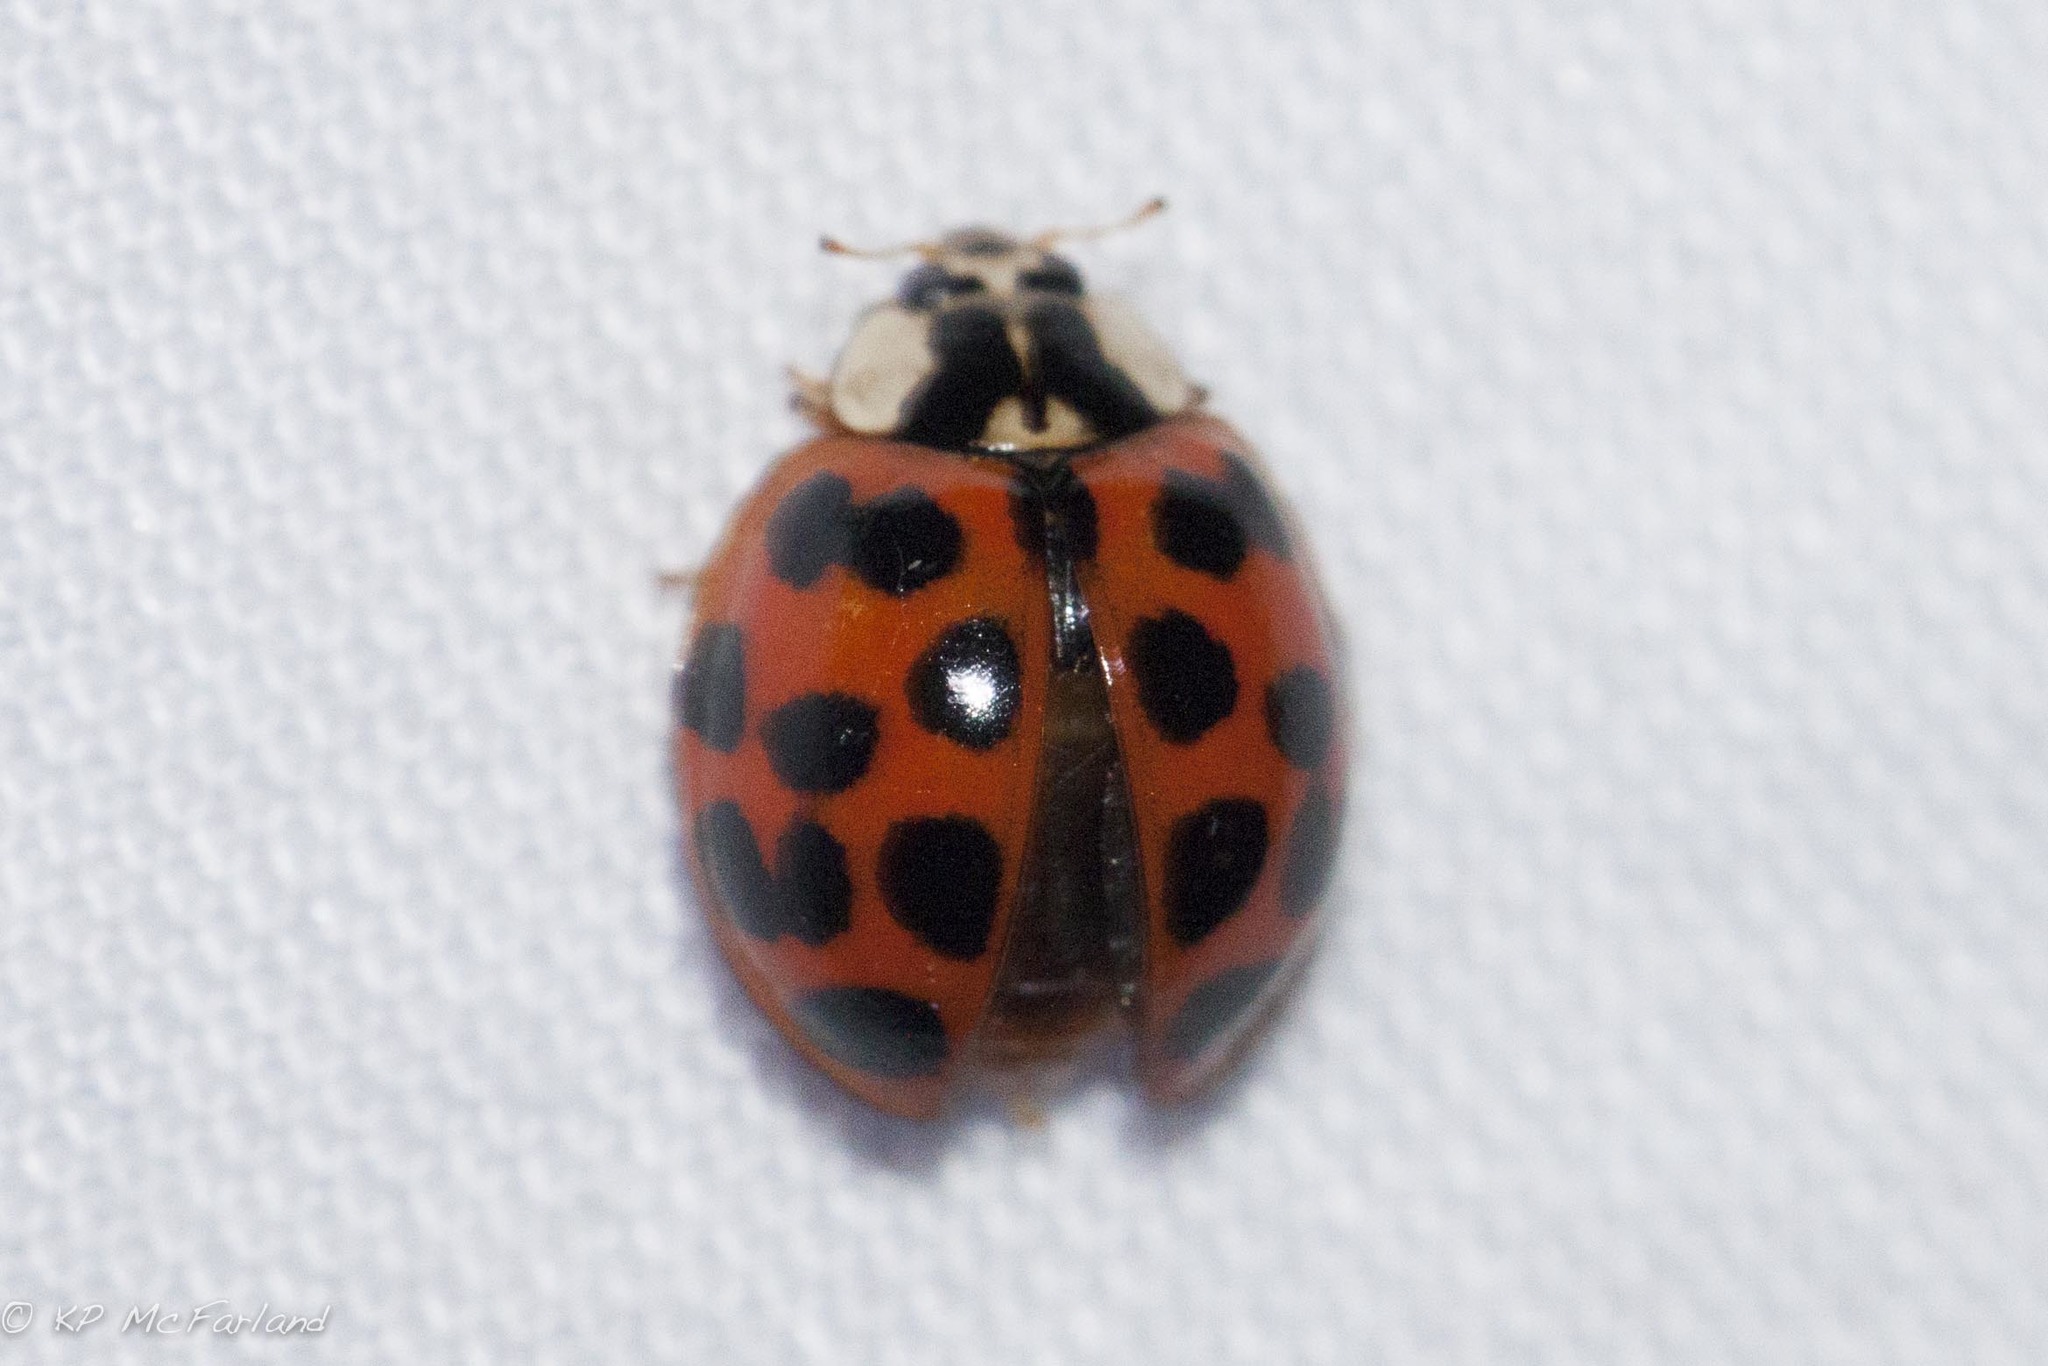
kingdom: Animalia
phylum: Arthropoda
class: Insecta
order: Coleoptera
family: Coccinellidae
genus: Harmonia
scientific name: Harmonia axyridis
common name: Harlequin ladybird
